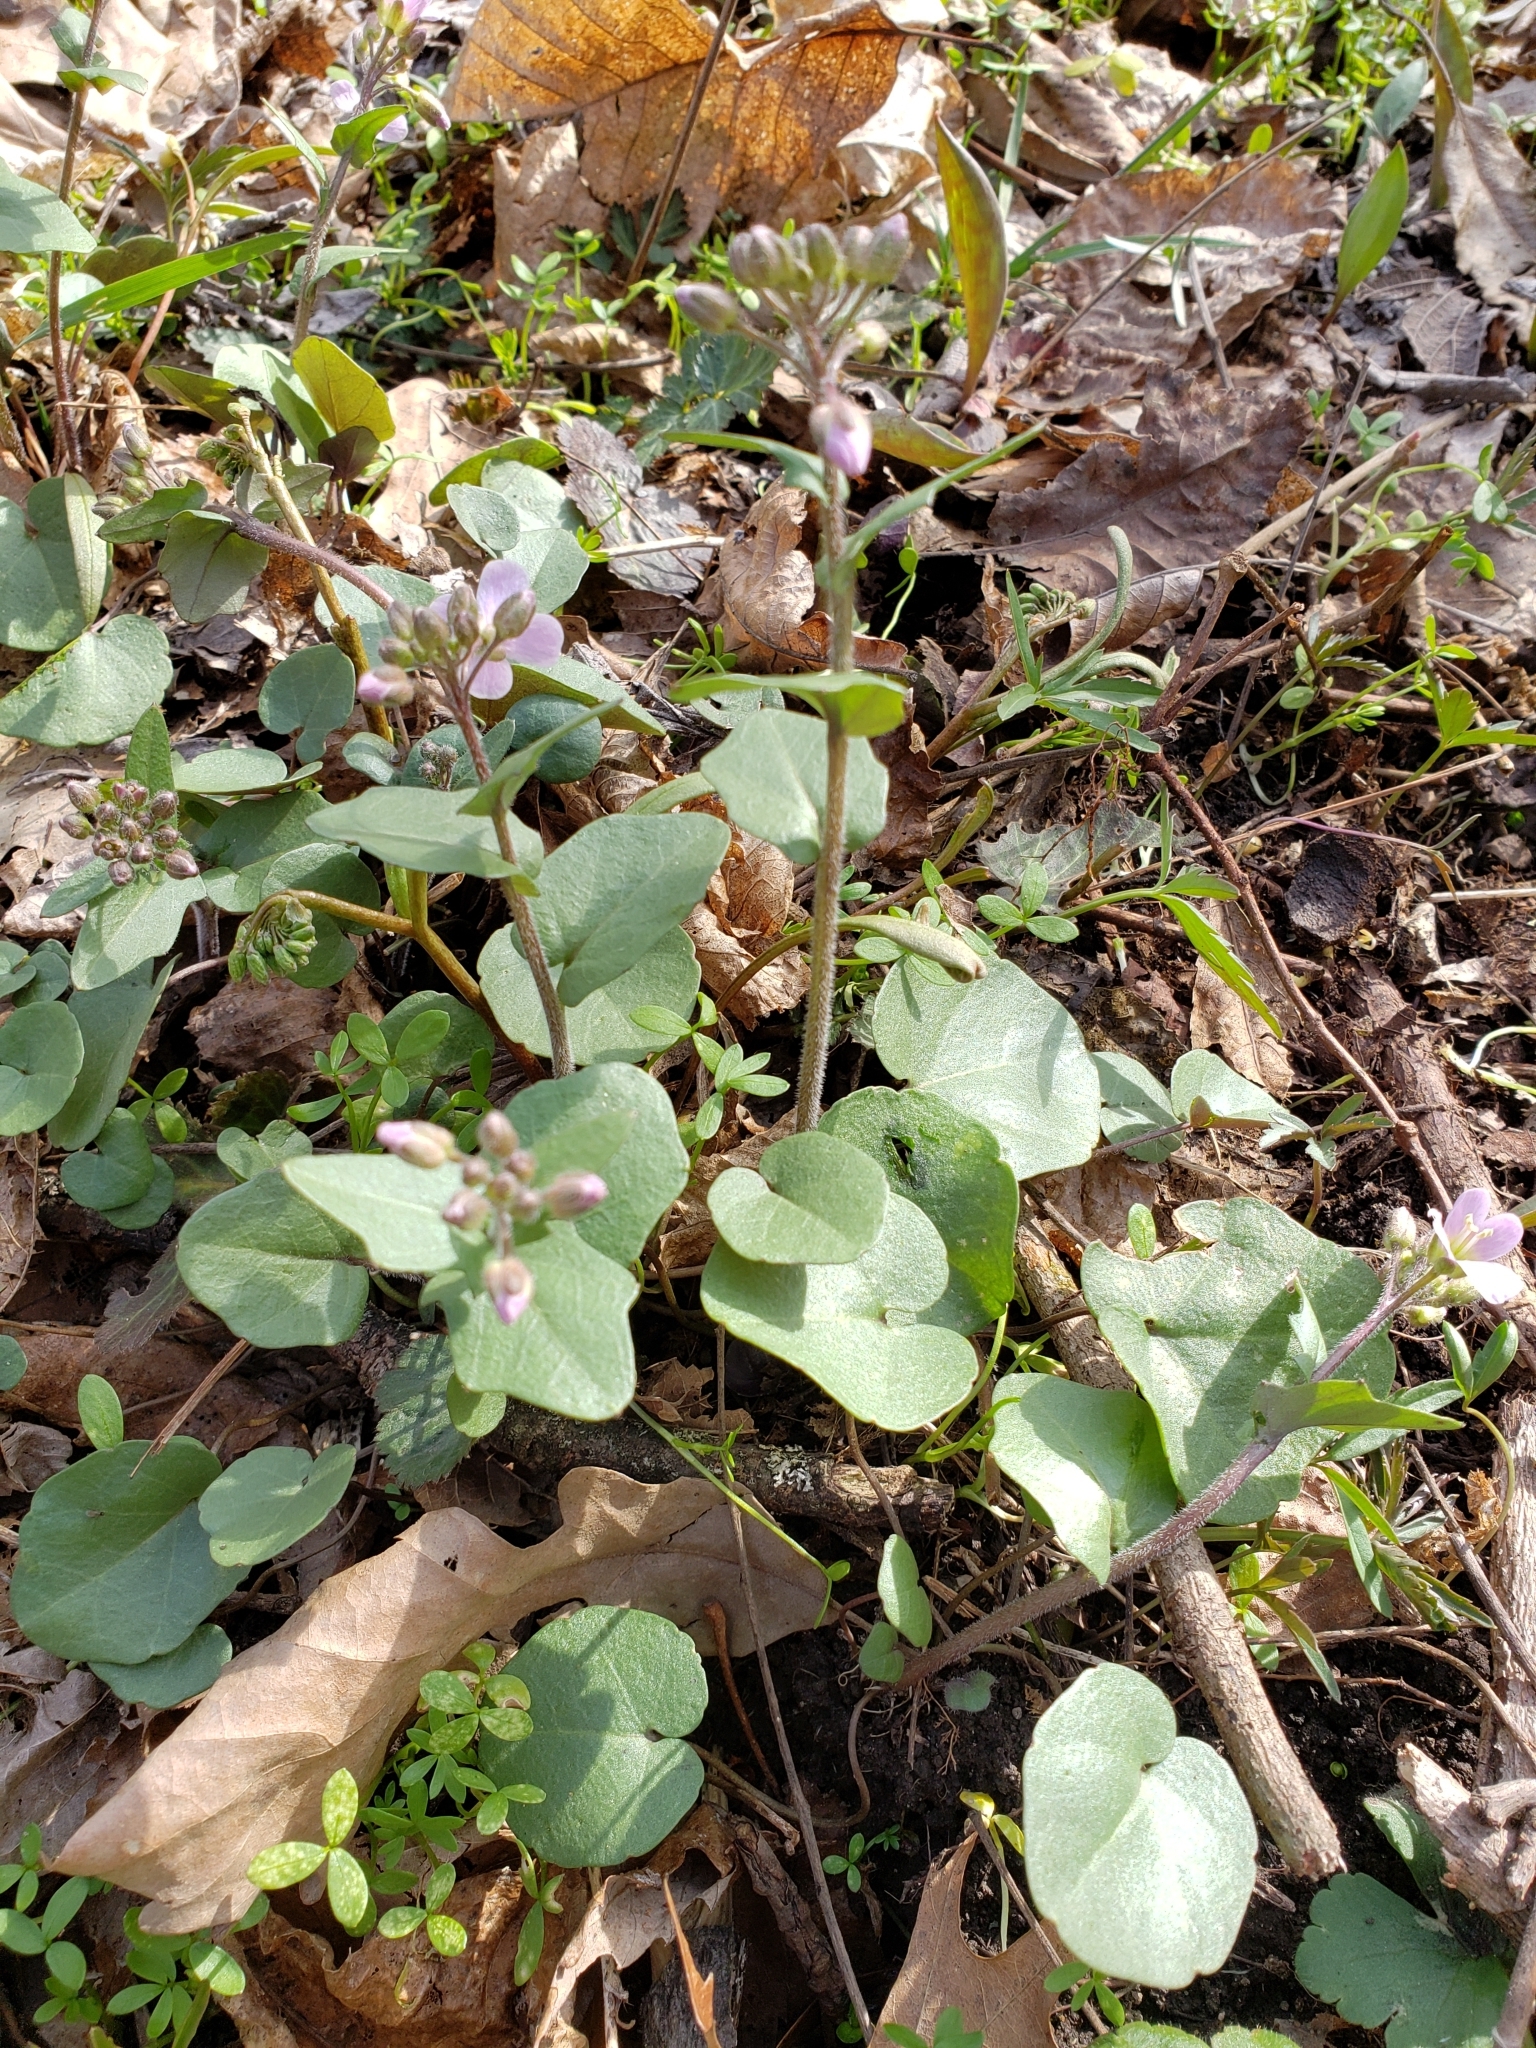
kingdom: Plantae
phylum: Tracheophyta
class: Magnoliopsida
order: Brassicales
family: Brassicaceae
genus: Cardamine
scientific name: Cardamine douglassii
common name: Purple cress
